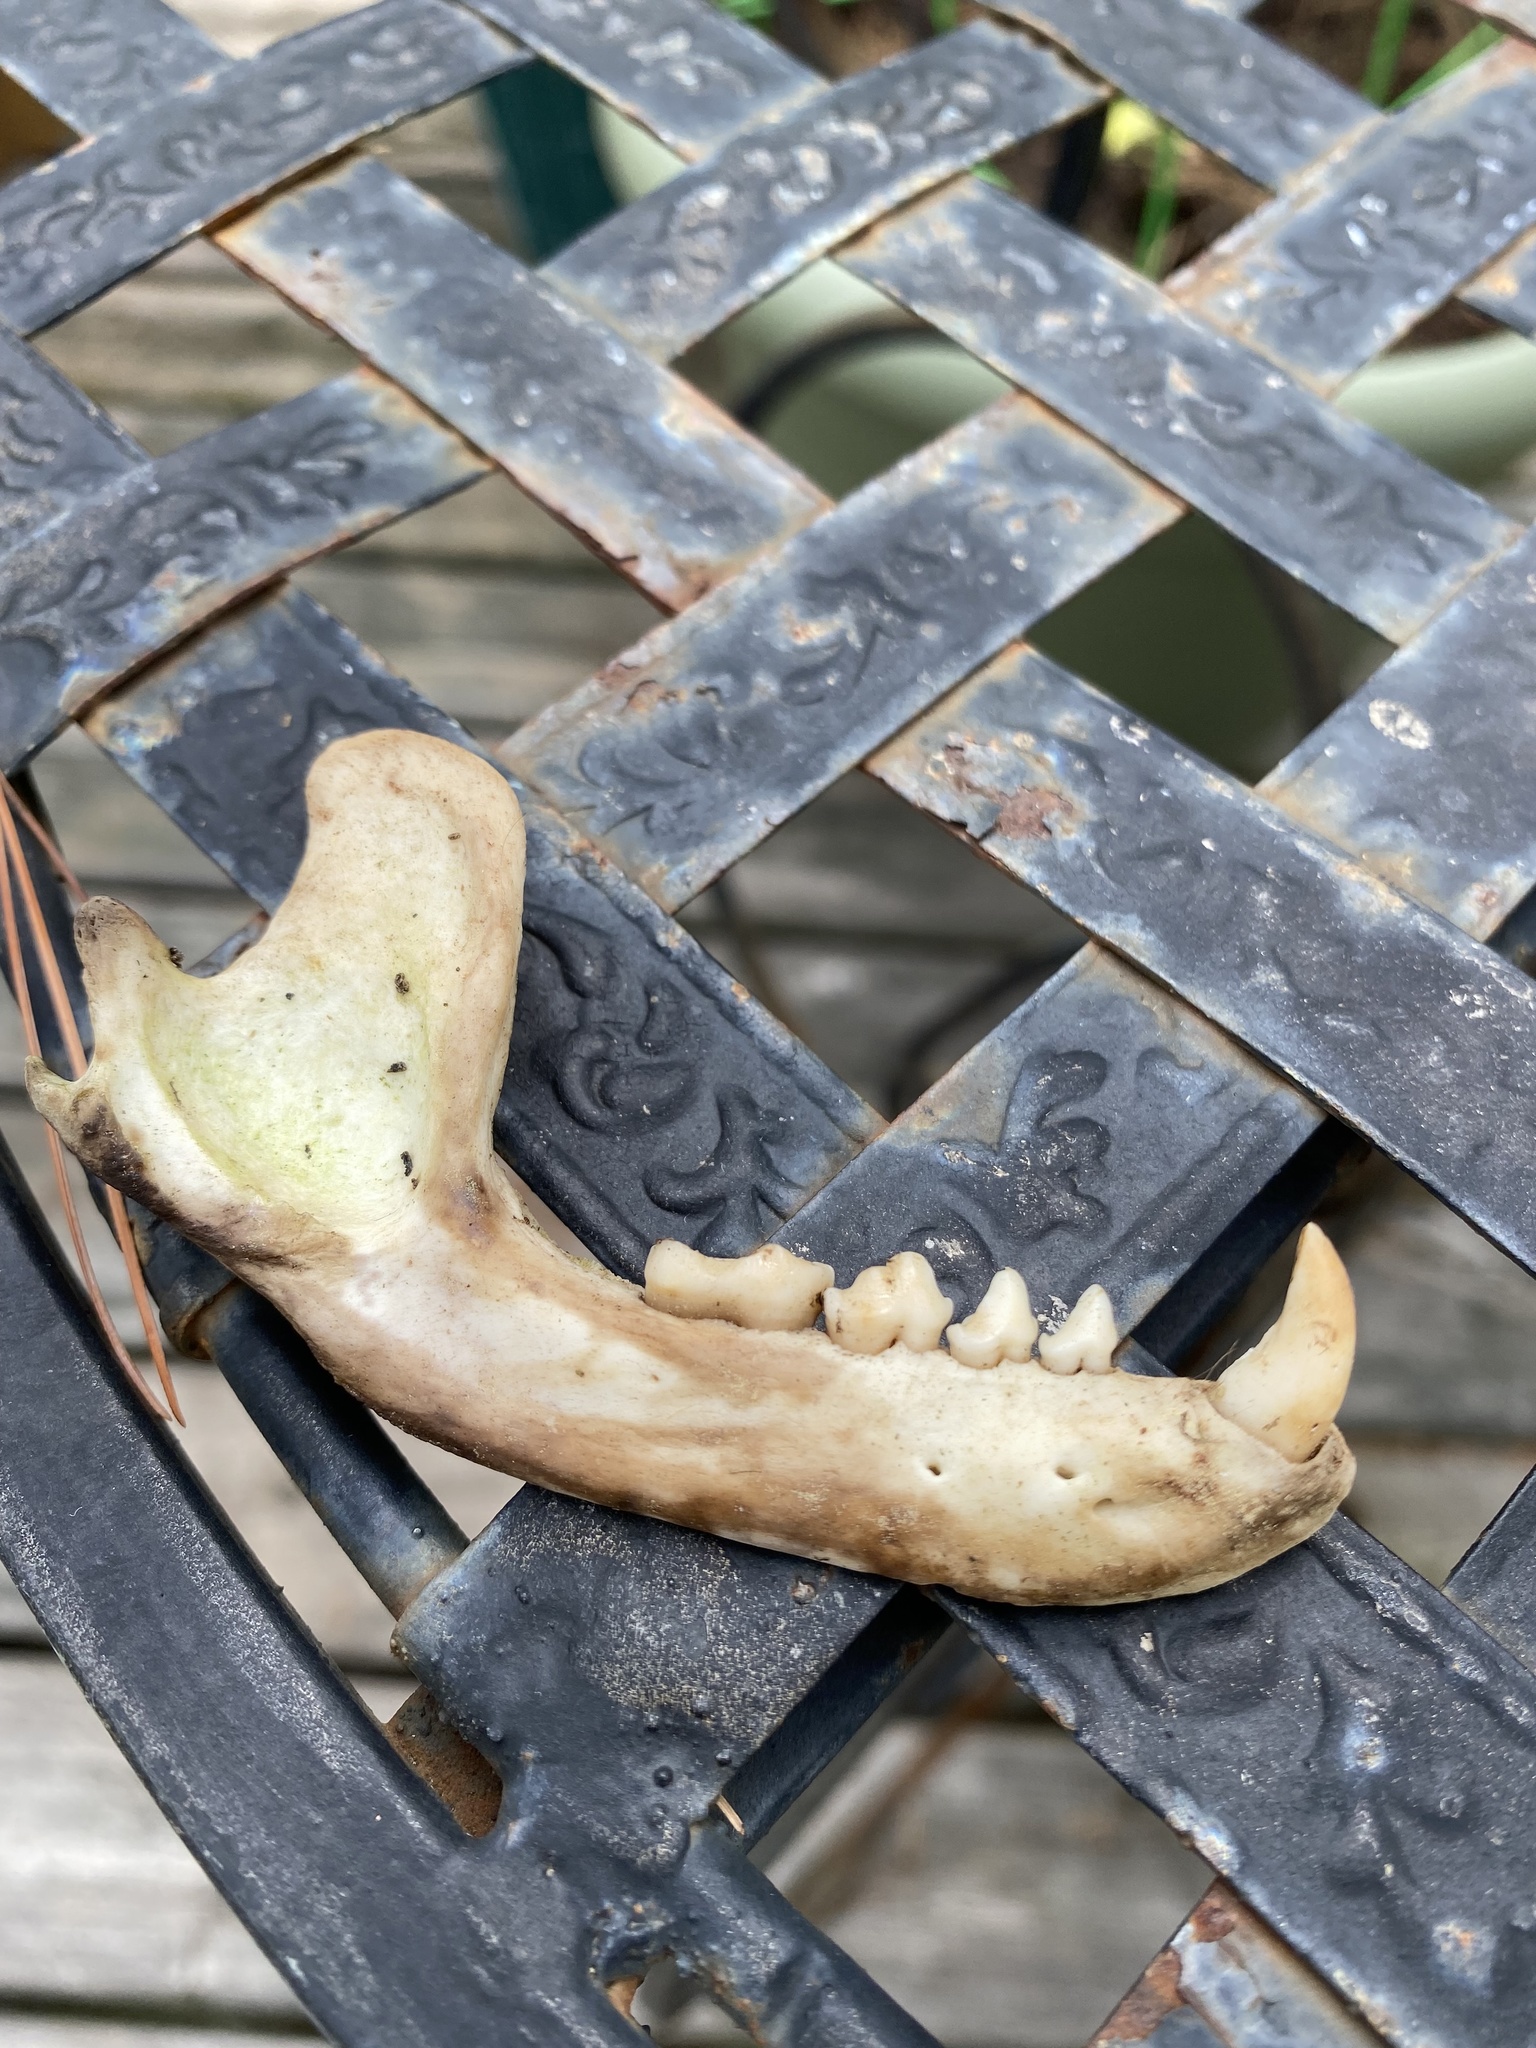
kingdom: Animalia
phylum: Chordata
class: Mammalia
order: Carnivora
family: Procyonidae
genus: Procyon
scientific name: Procyon lotor
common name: Raccoon
